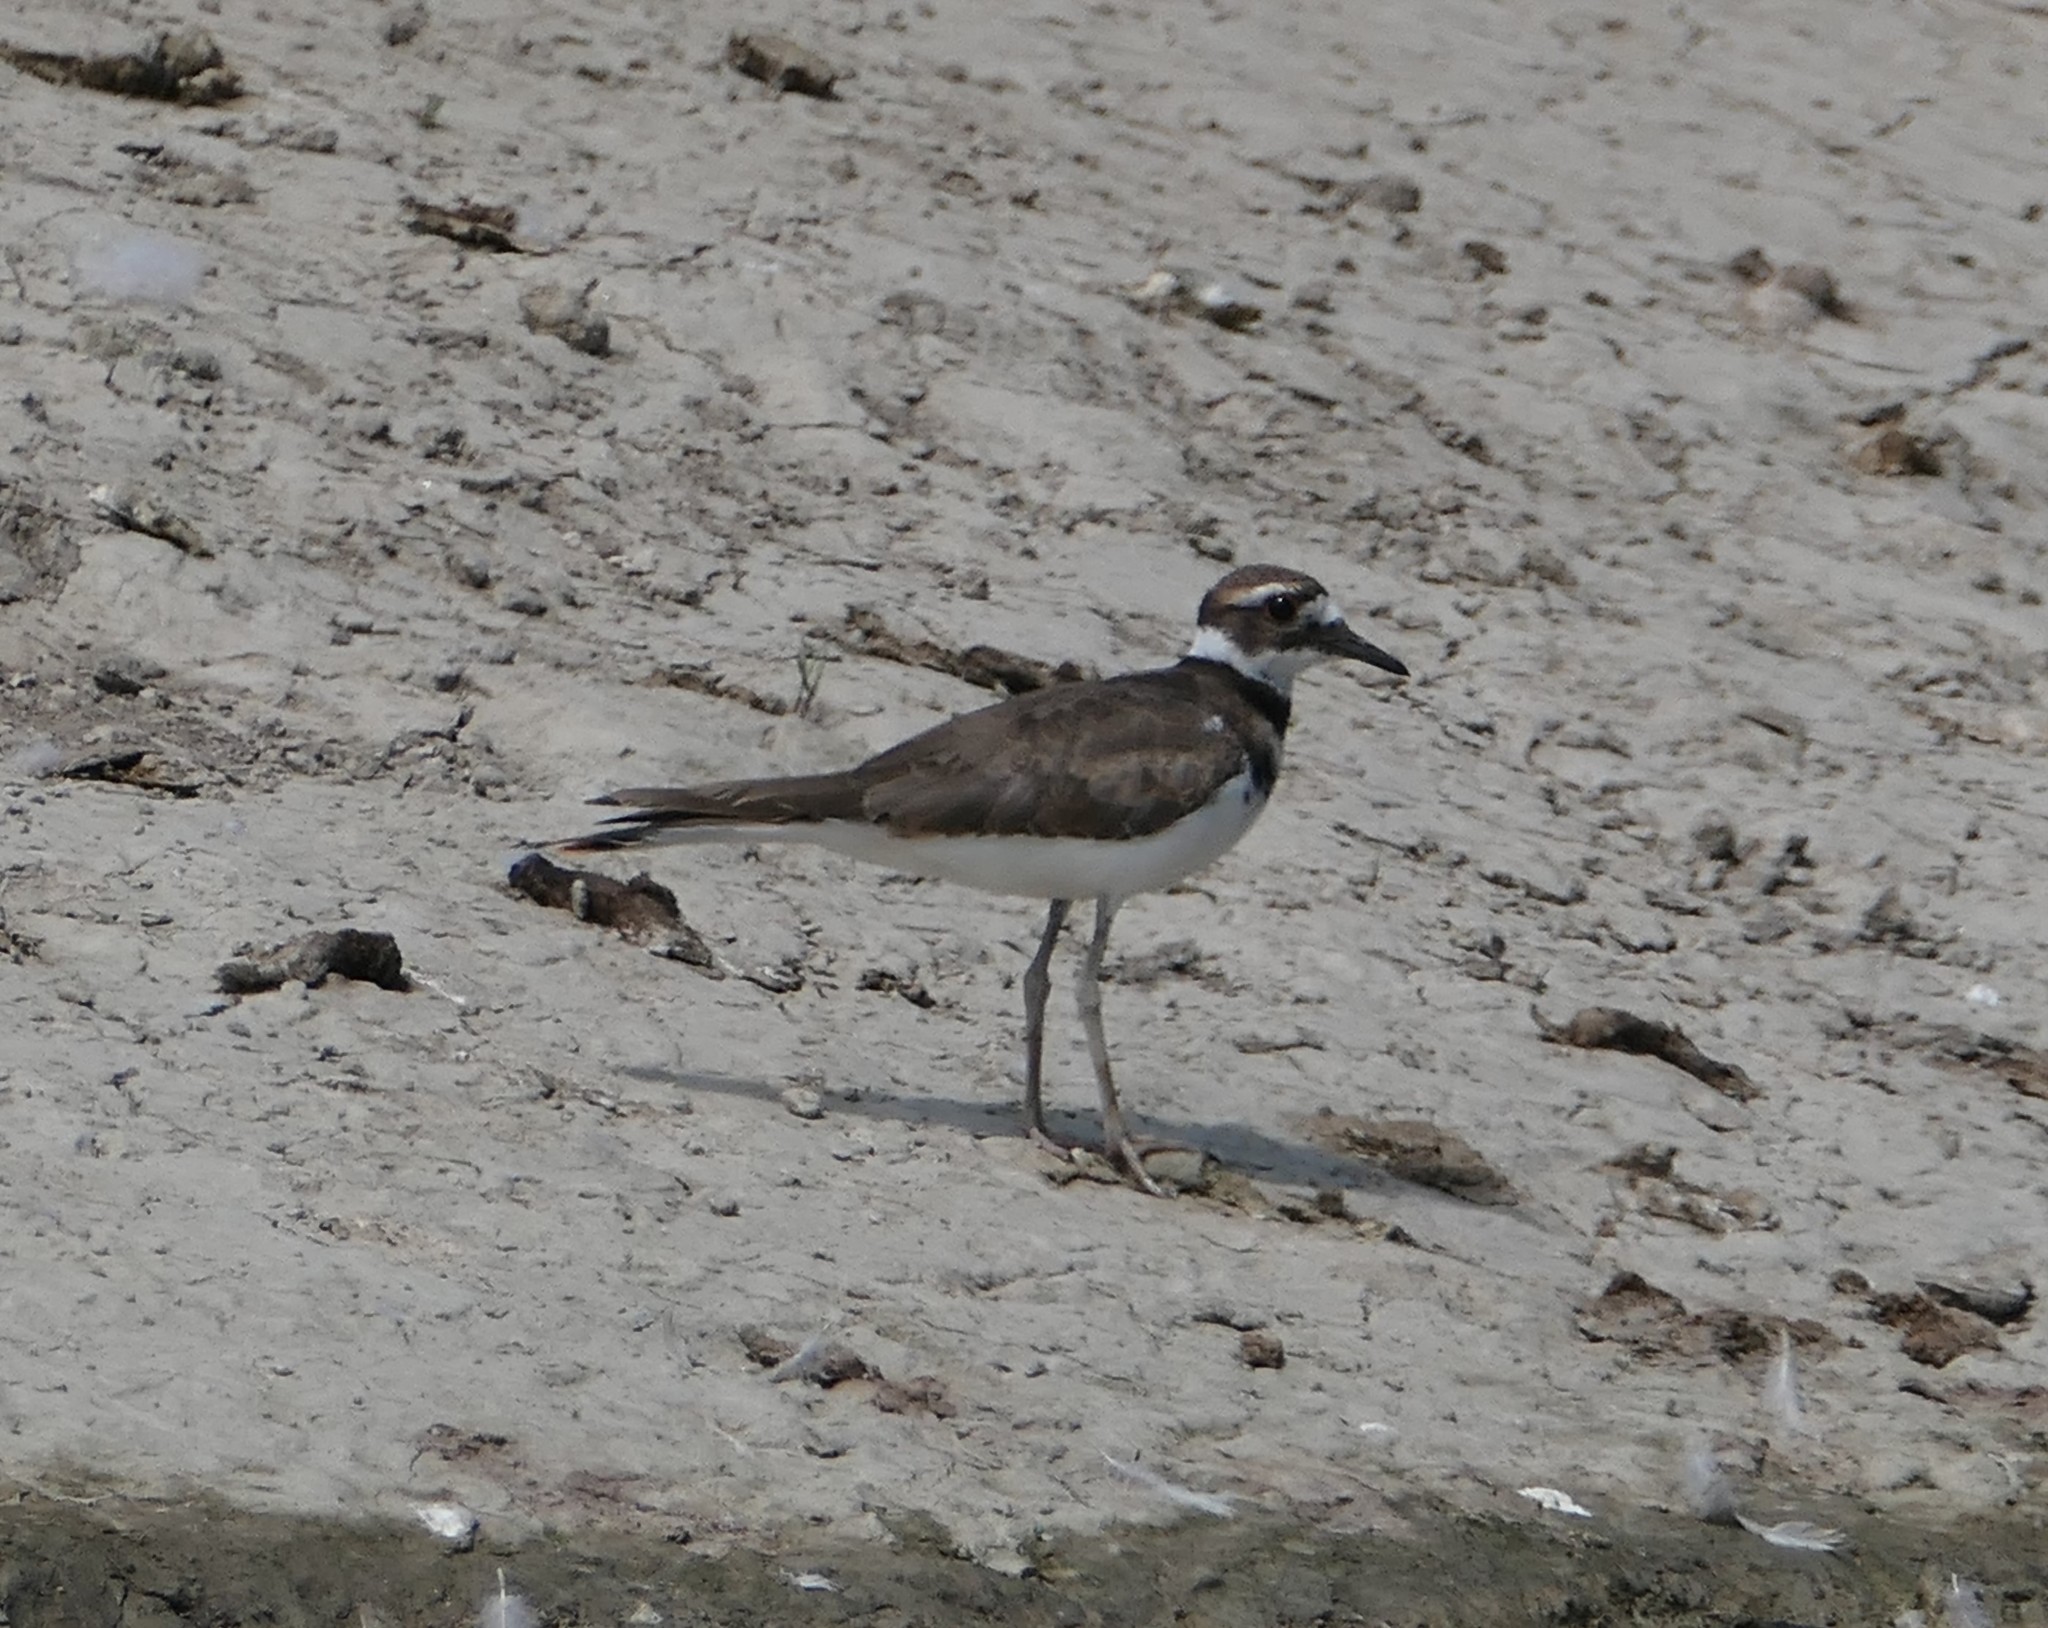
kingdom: Animalia
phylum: Chordata
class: Aves
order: Charadriiformes
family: Charadriidae
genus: Charadrius
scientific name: Charadrius vociferus
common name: Killdeer
